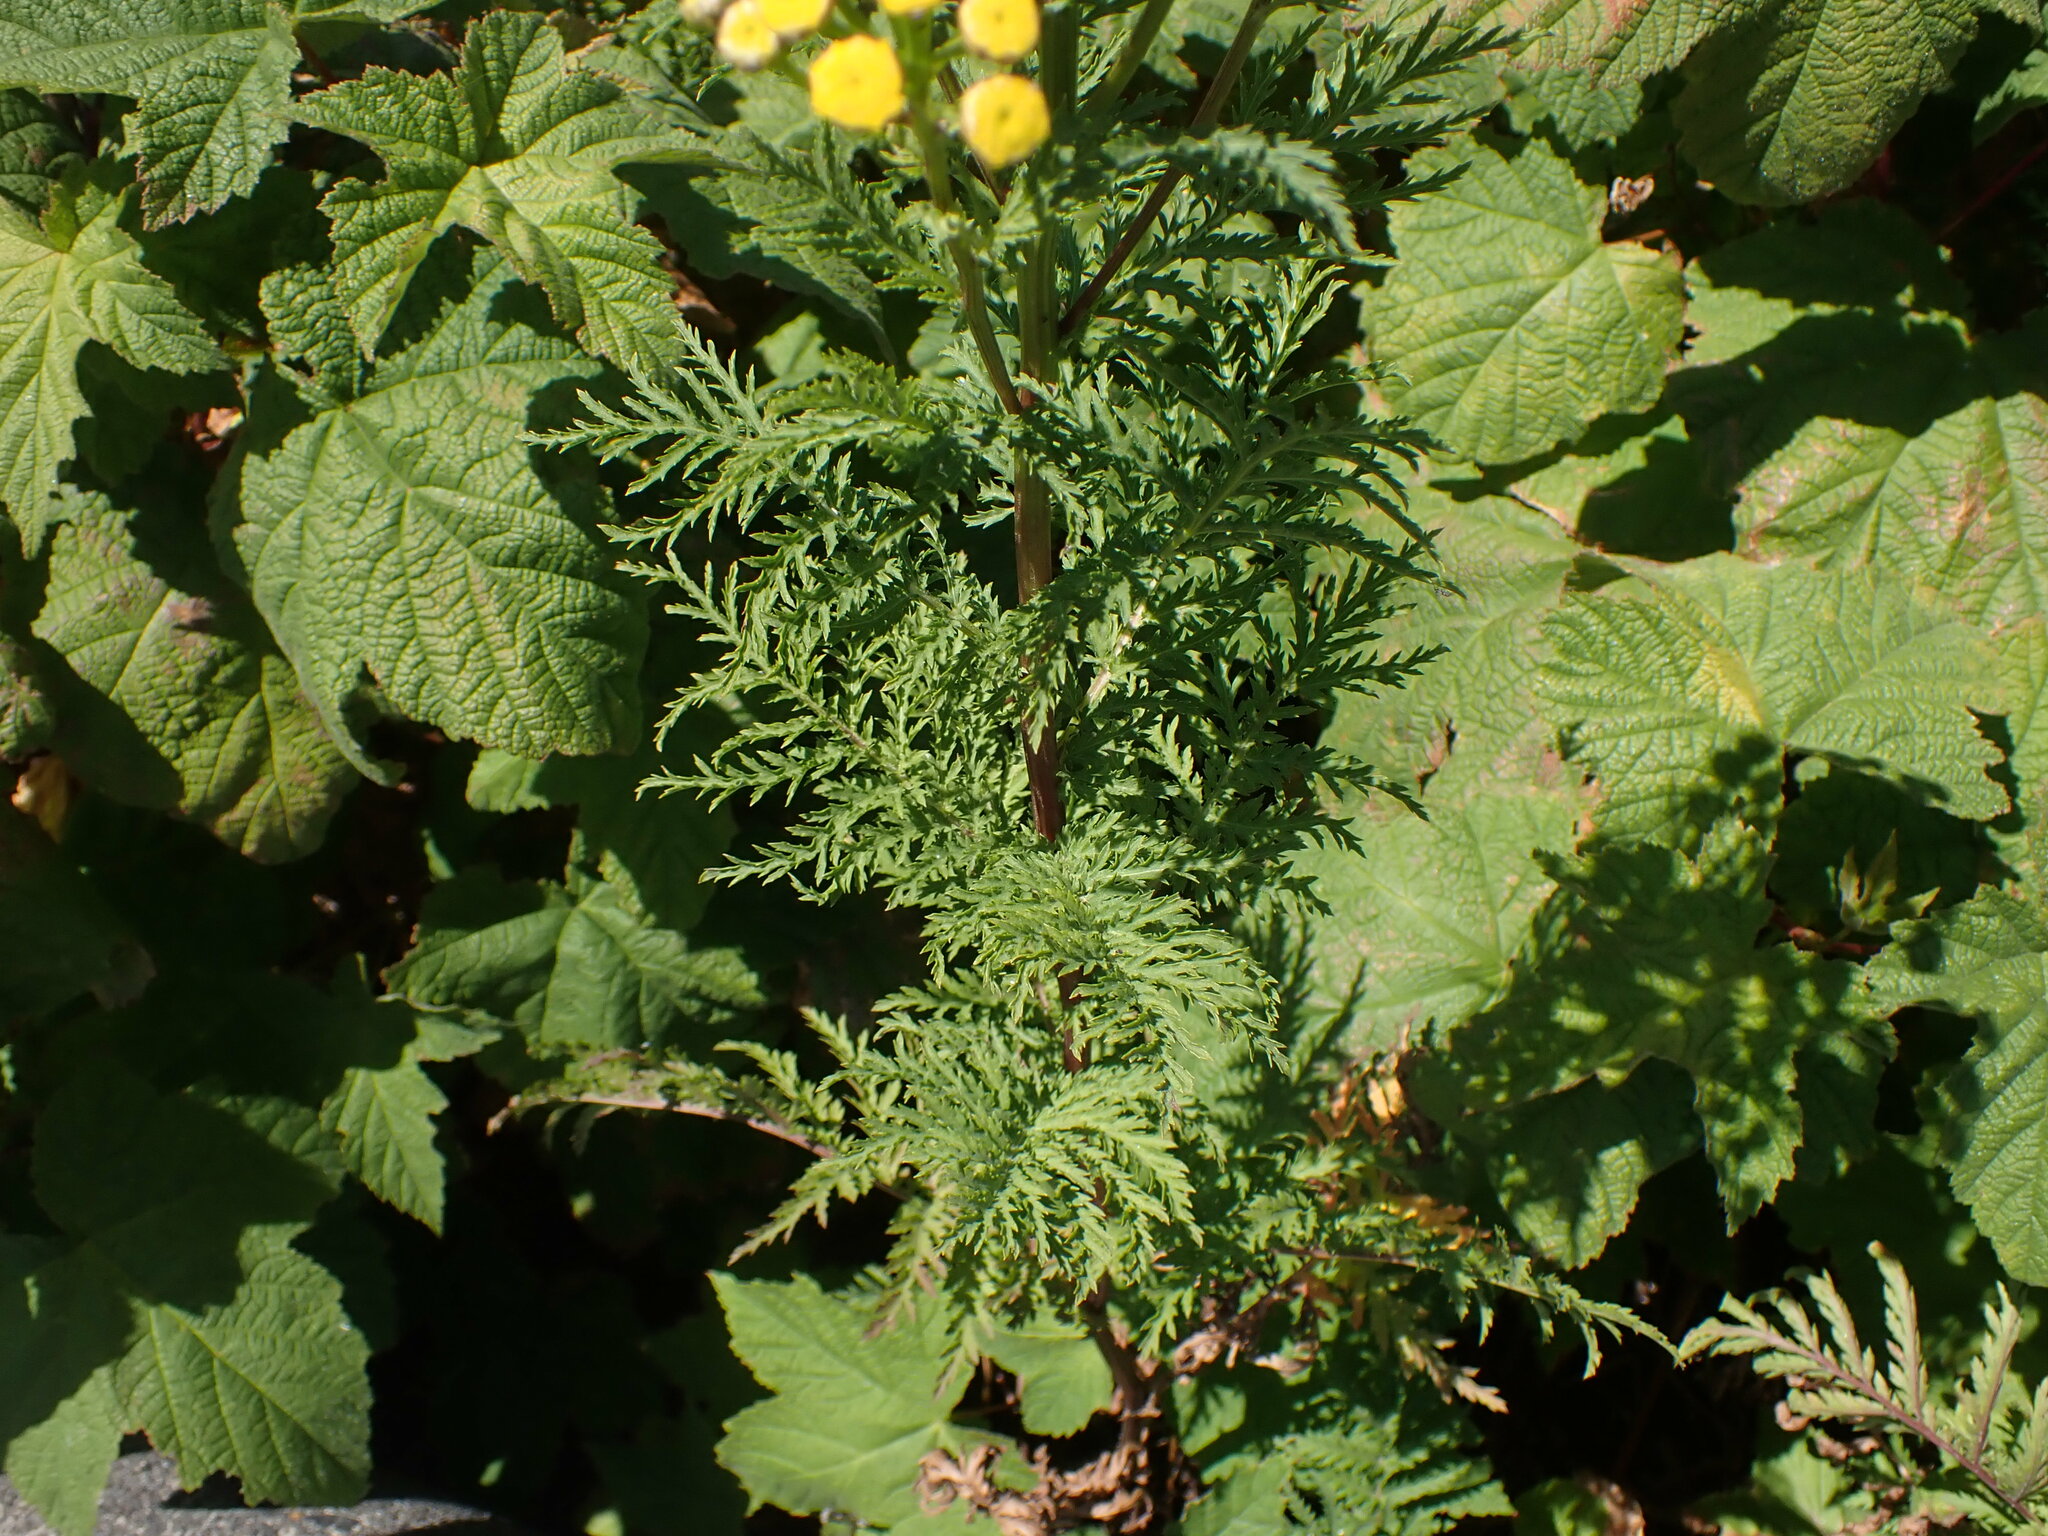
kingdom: Plantae
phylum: Tracheophyta
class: Magnoliopsida
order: Asterales
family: Asteraceae
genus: Tanacetum
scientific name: Tanacetum vulgare
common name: Common tansy
